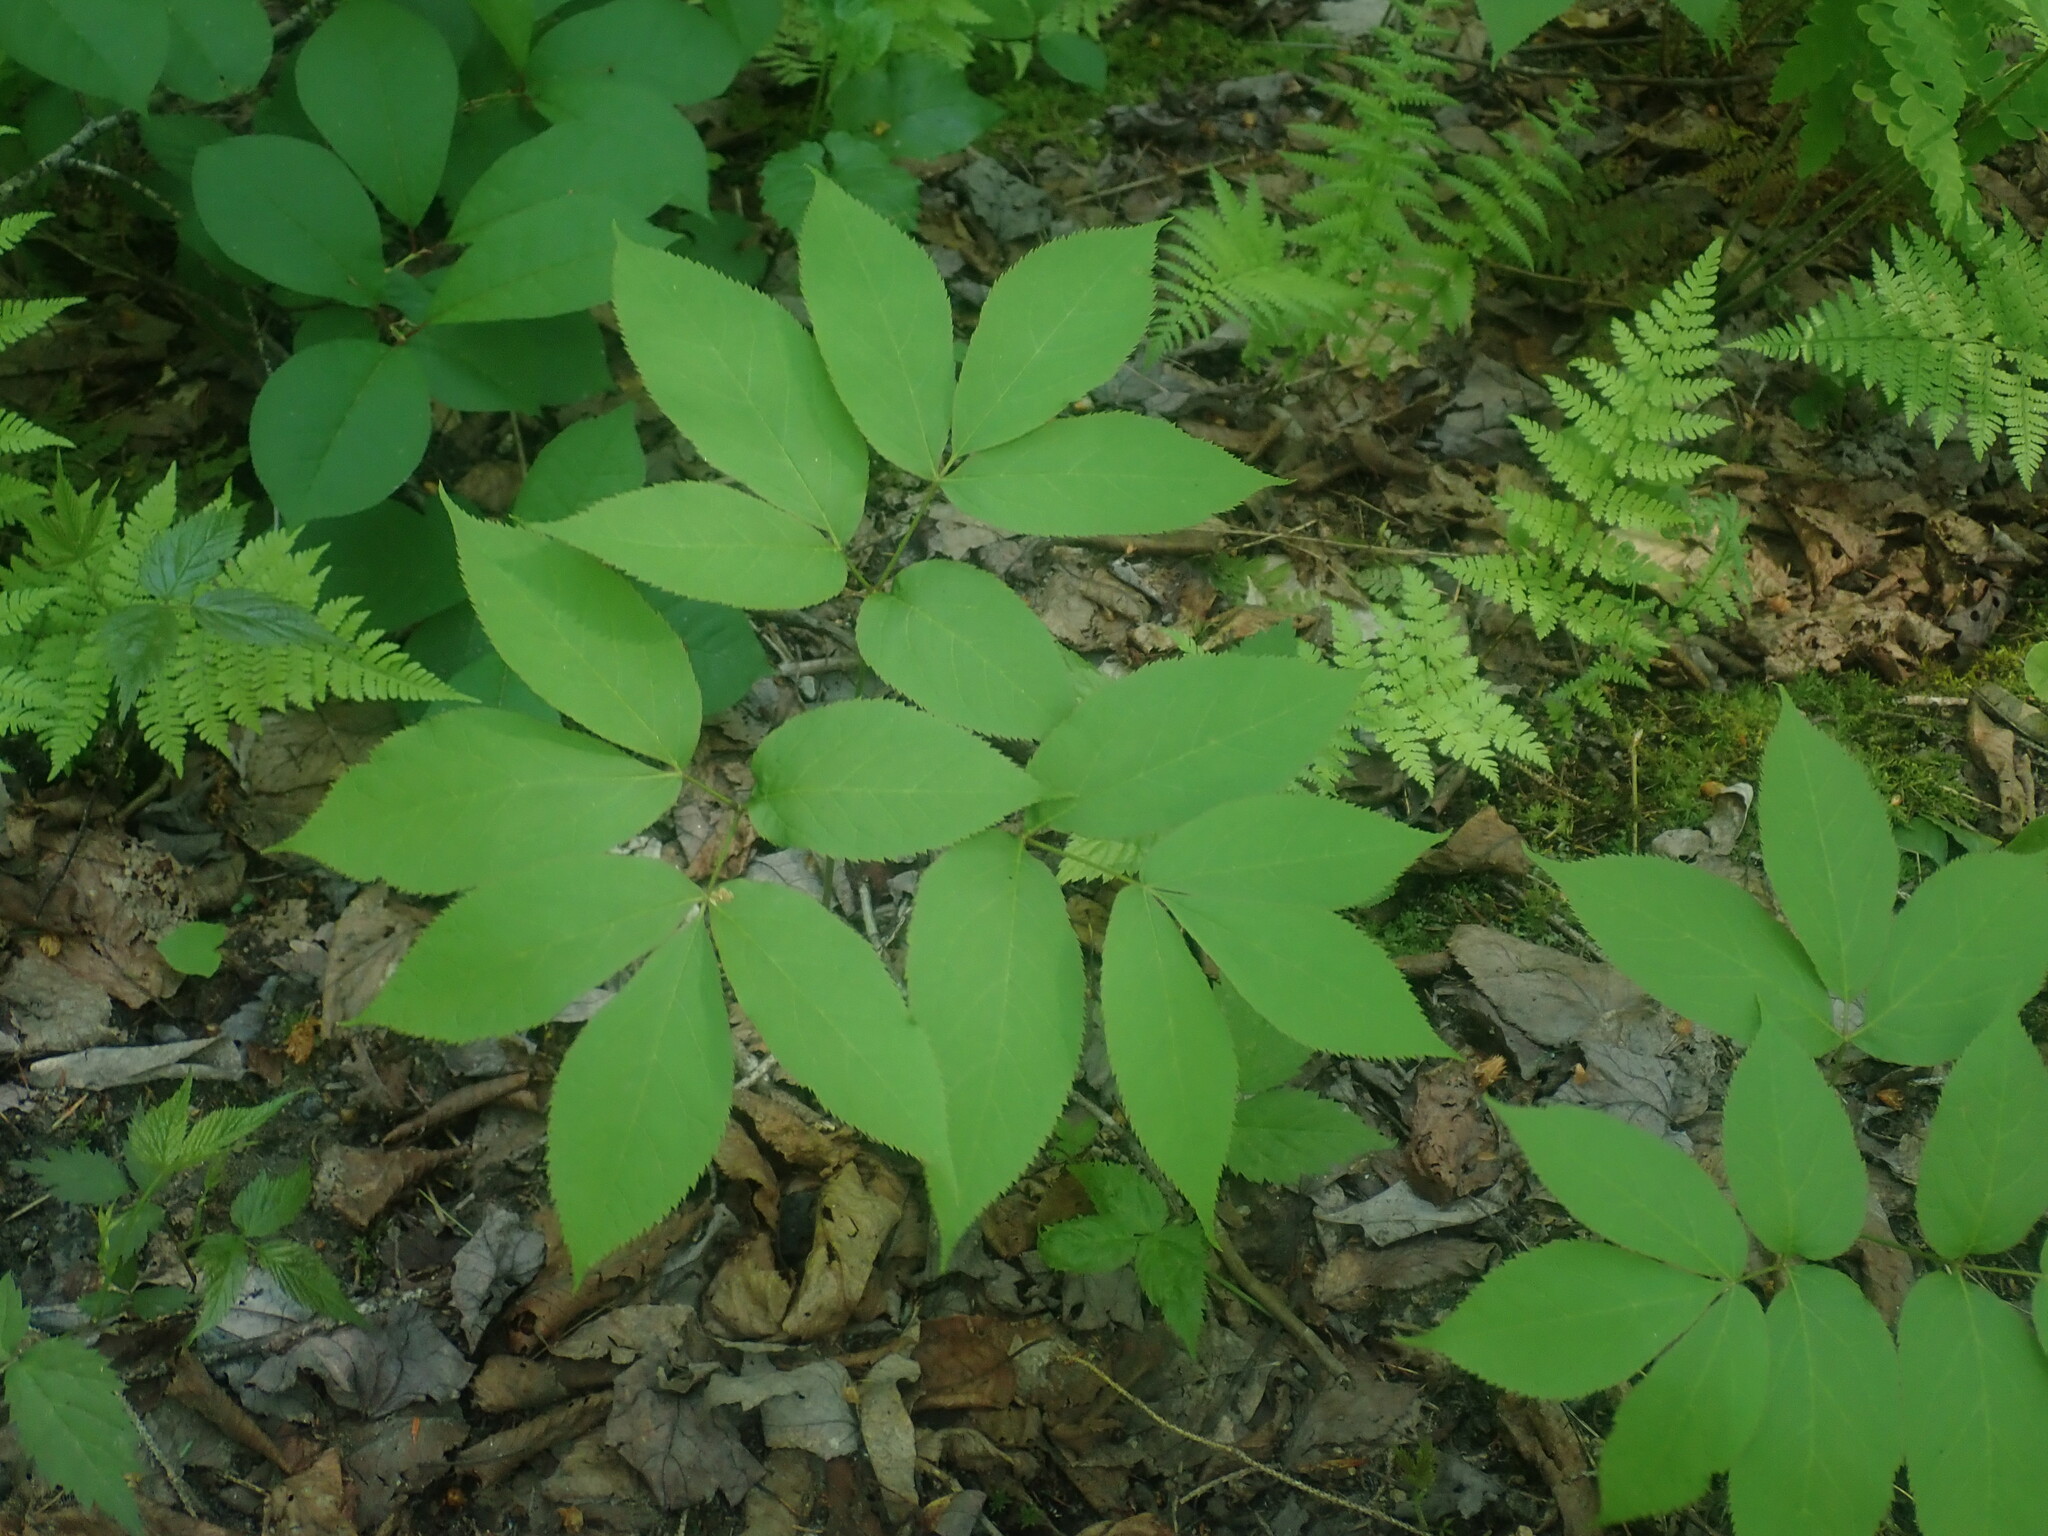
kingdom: Plantae
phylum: Tracheophyta
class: Magnoliopsida
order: Apiales
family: Araliaceae
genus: Aralia
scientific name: Aralia nudicaulis
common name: Wild sarsaparilla
